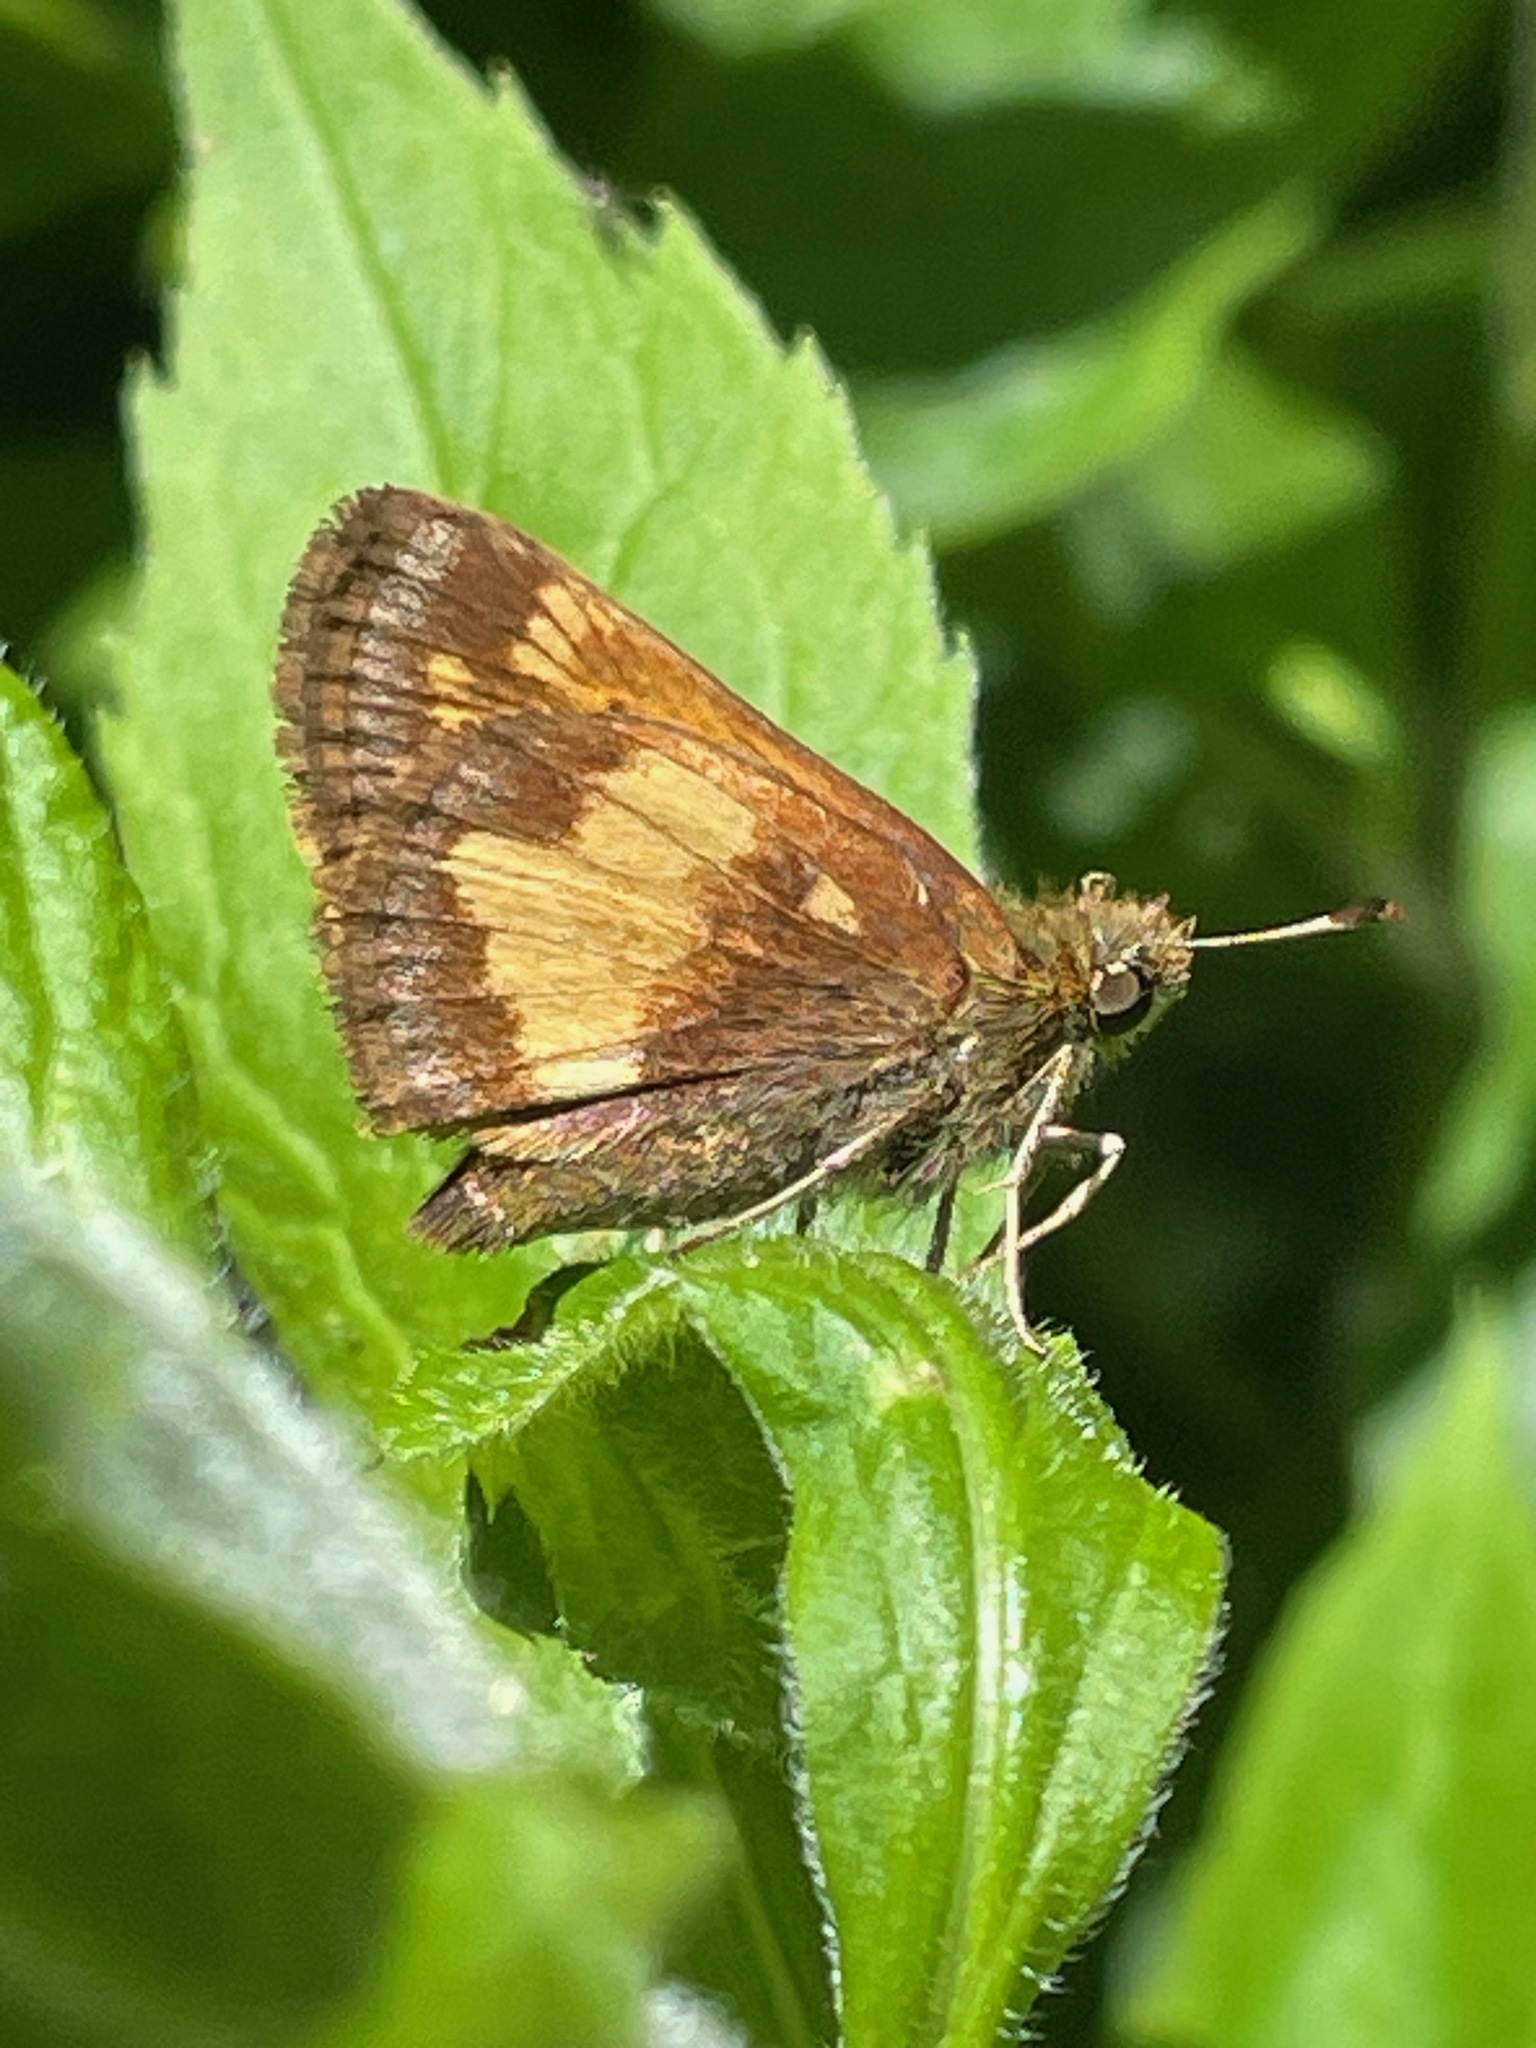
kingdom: Animalia
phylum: Arthropoda
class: Insecta
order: Lepidoptera
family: Hesperiidae
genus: Lon
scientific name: Lon hobomok
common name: Hobomok skipper
